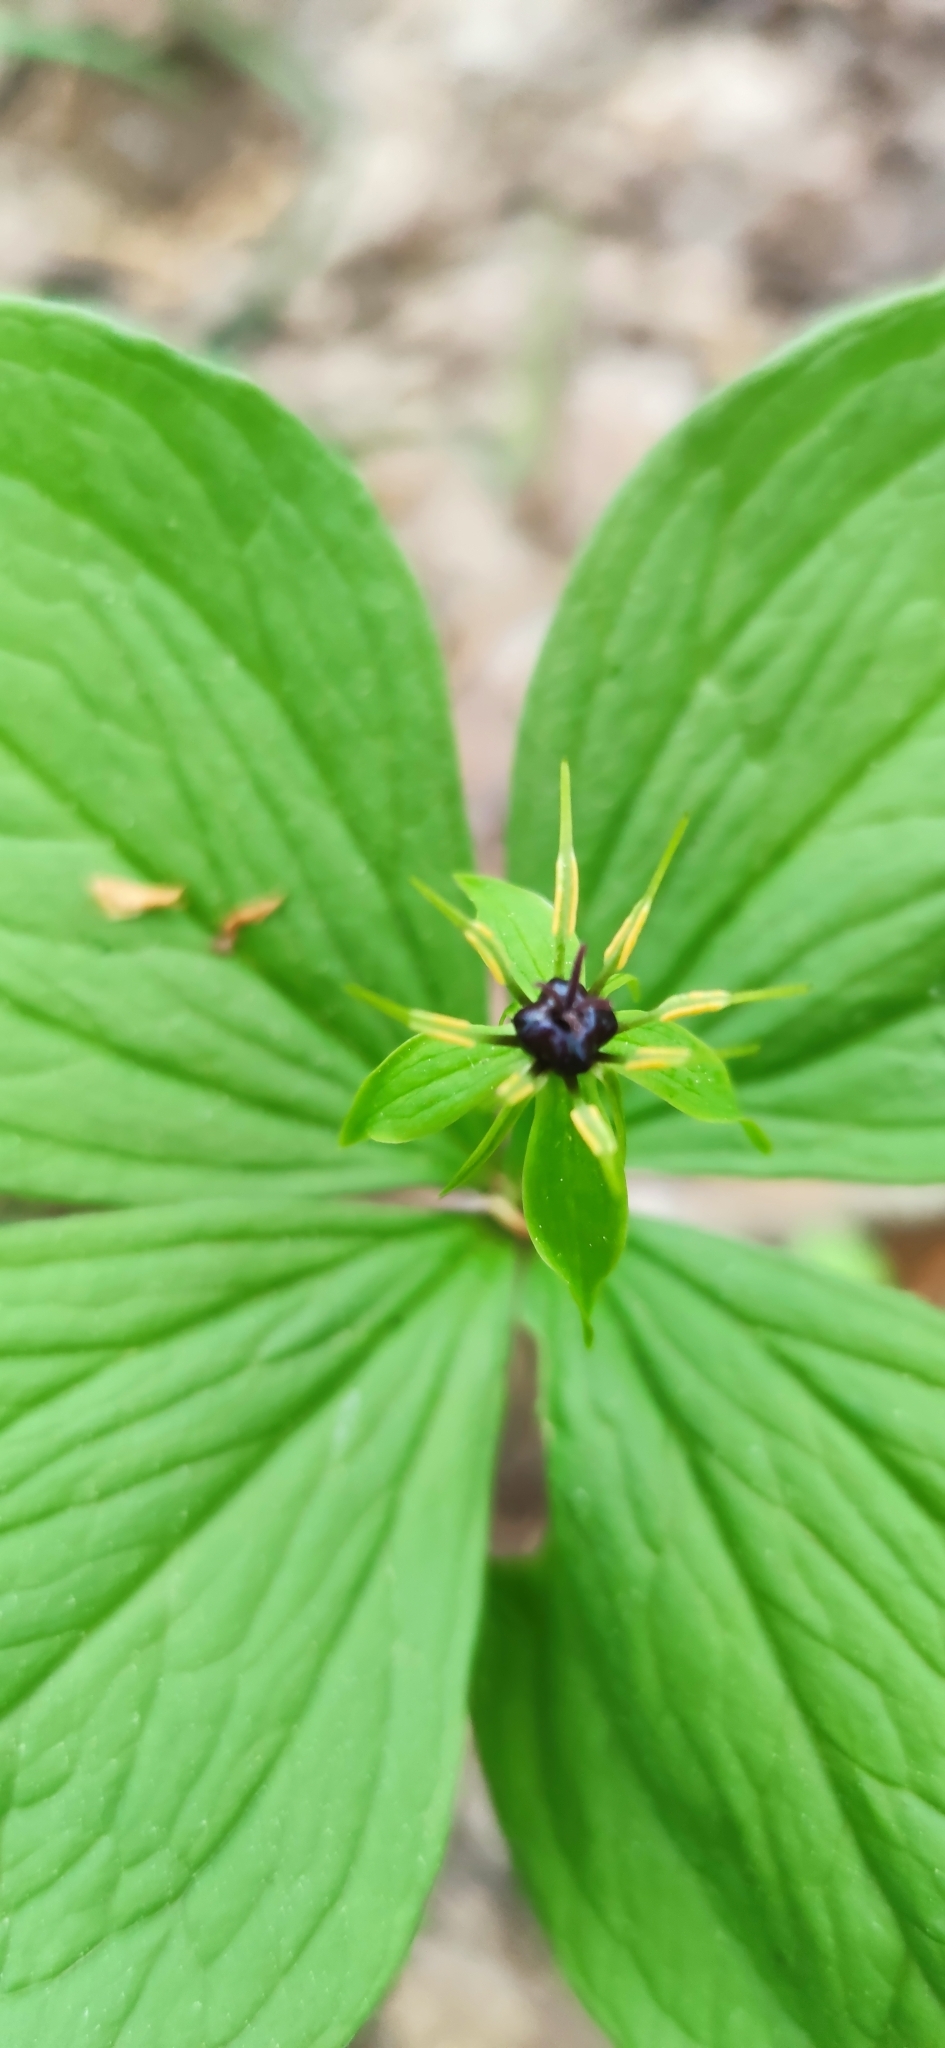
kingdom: Plantae
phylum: Tracheophyta
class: Liliopsida
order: Liliales
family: Melanthiaceae
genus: Paris
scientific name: Paris quadrifolia
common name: Herb-paris
